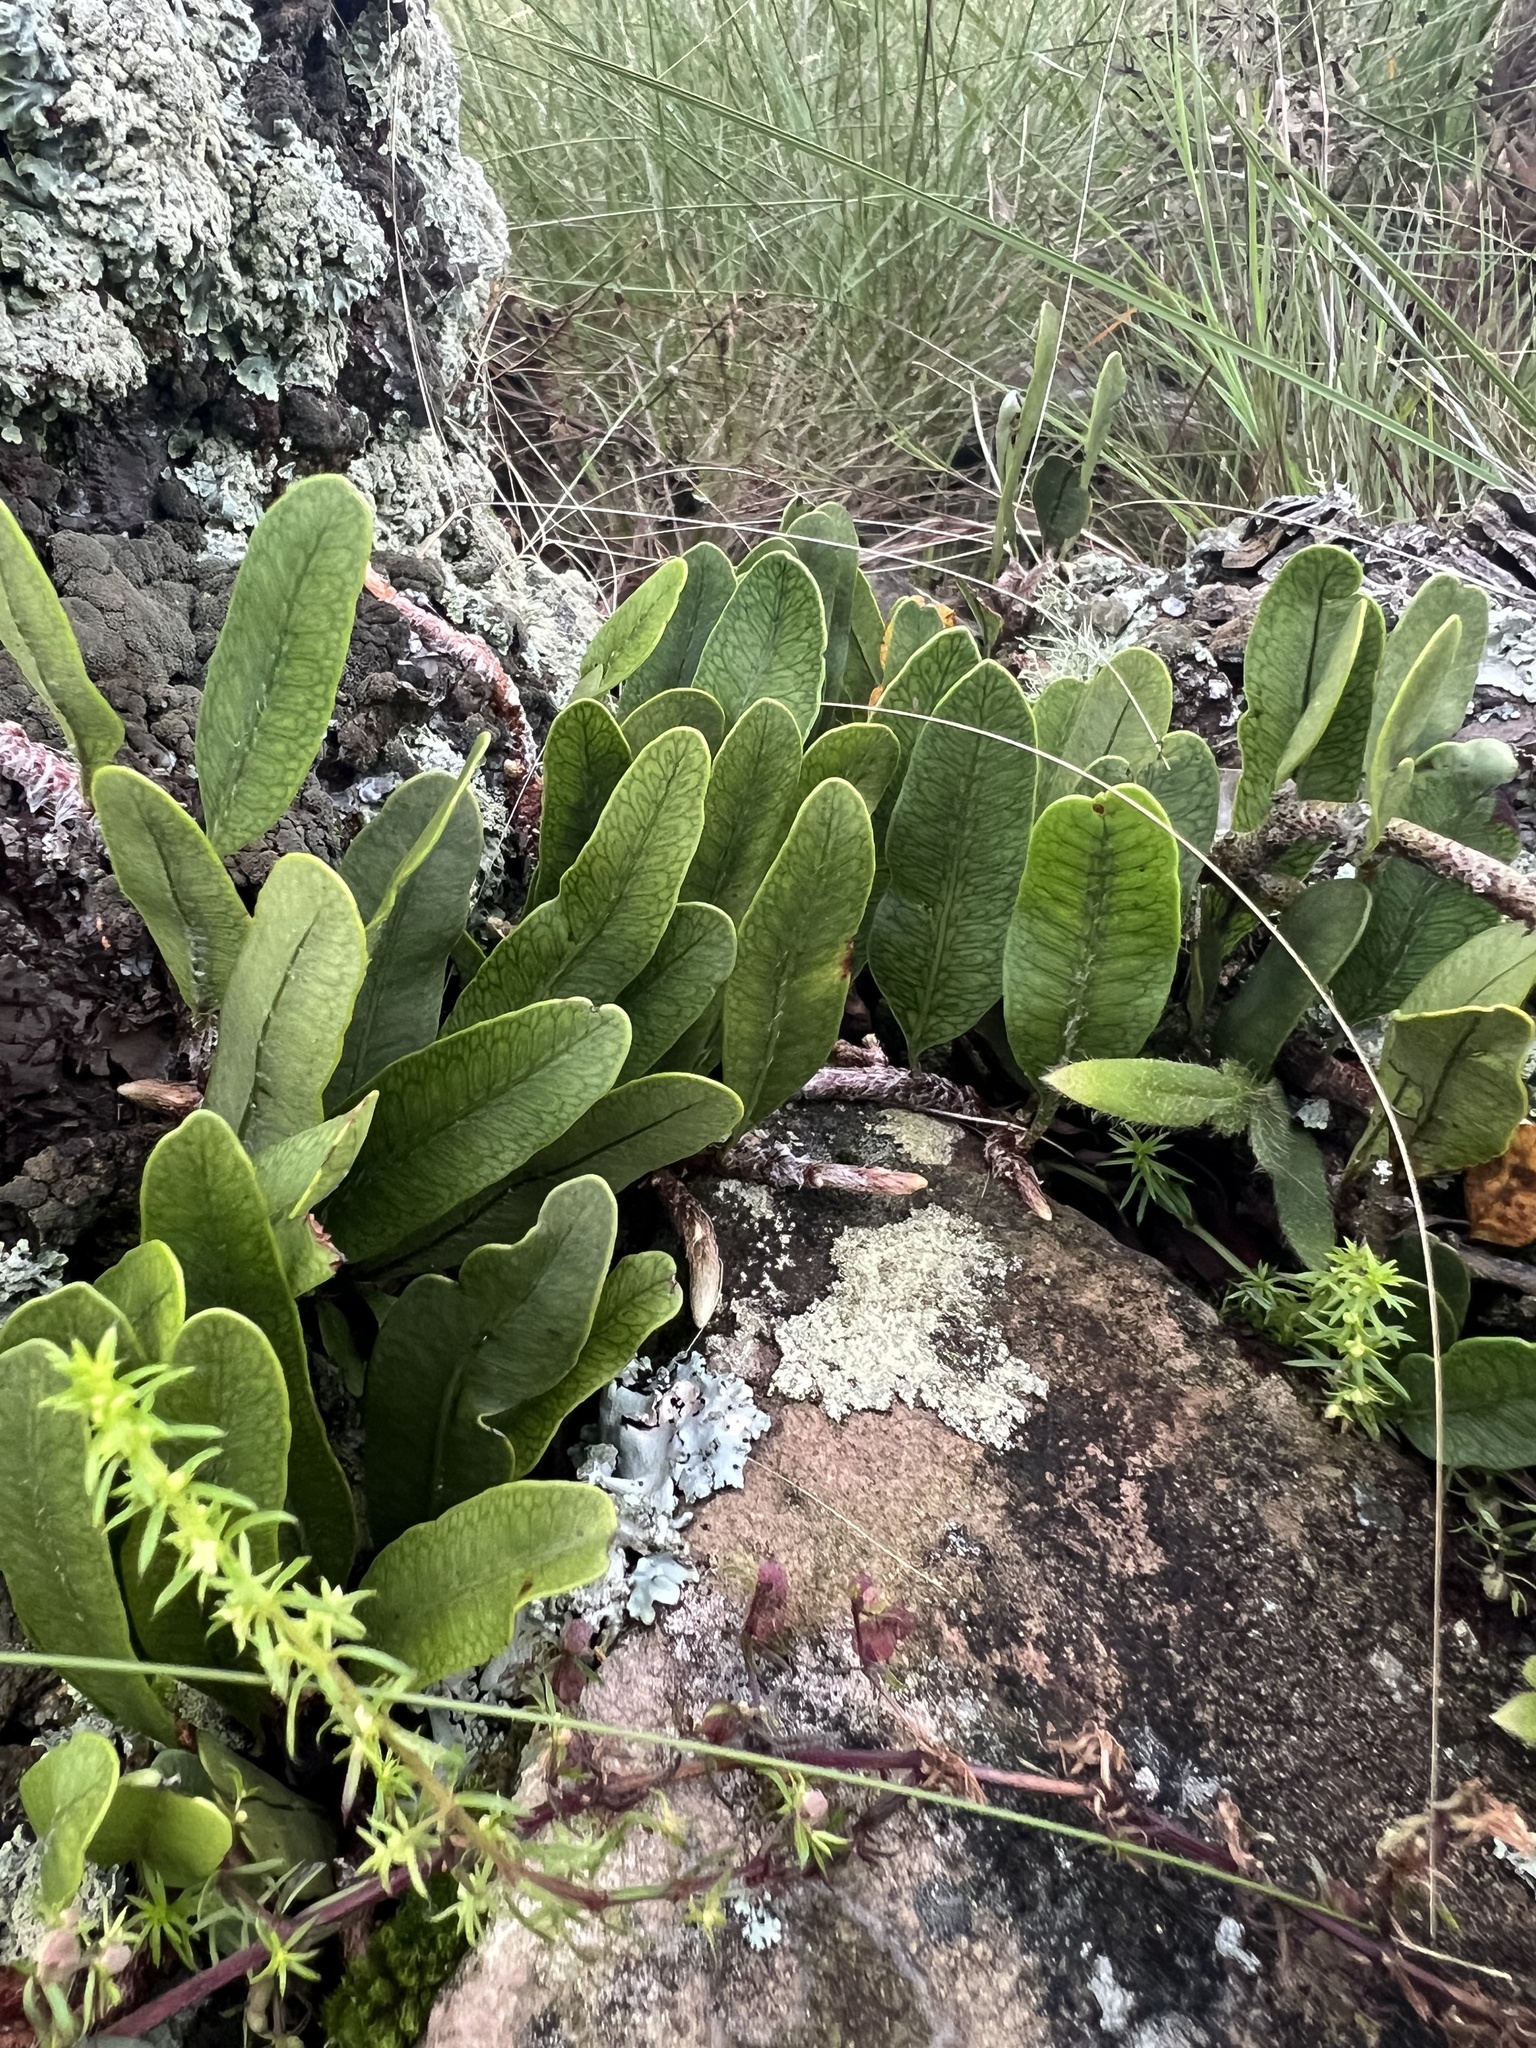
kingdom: Plantae
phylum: Tracheophyta
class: Polypodiopsida
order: Polypodiales
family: Polypodiaceae
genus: Microgramma
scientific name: Microgramma squamulosa
